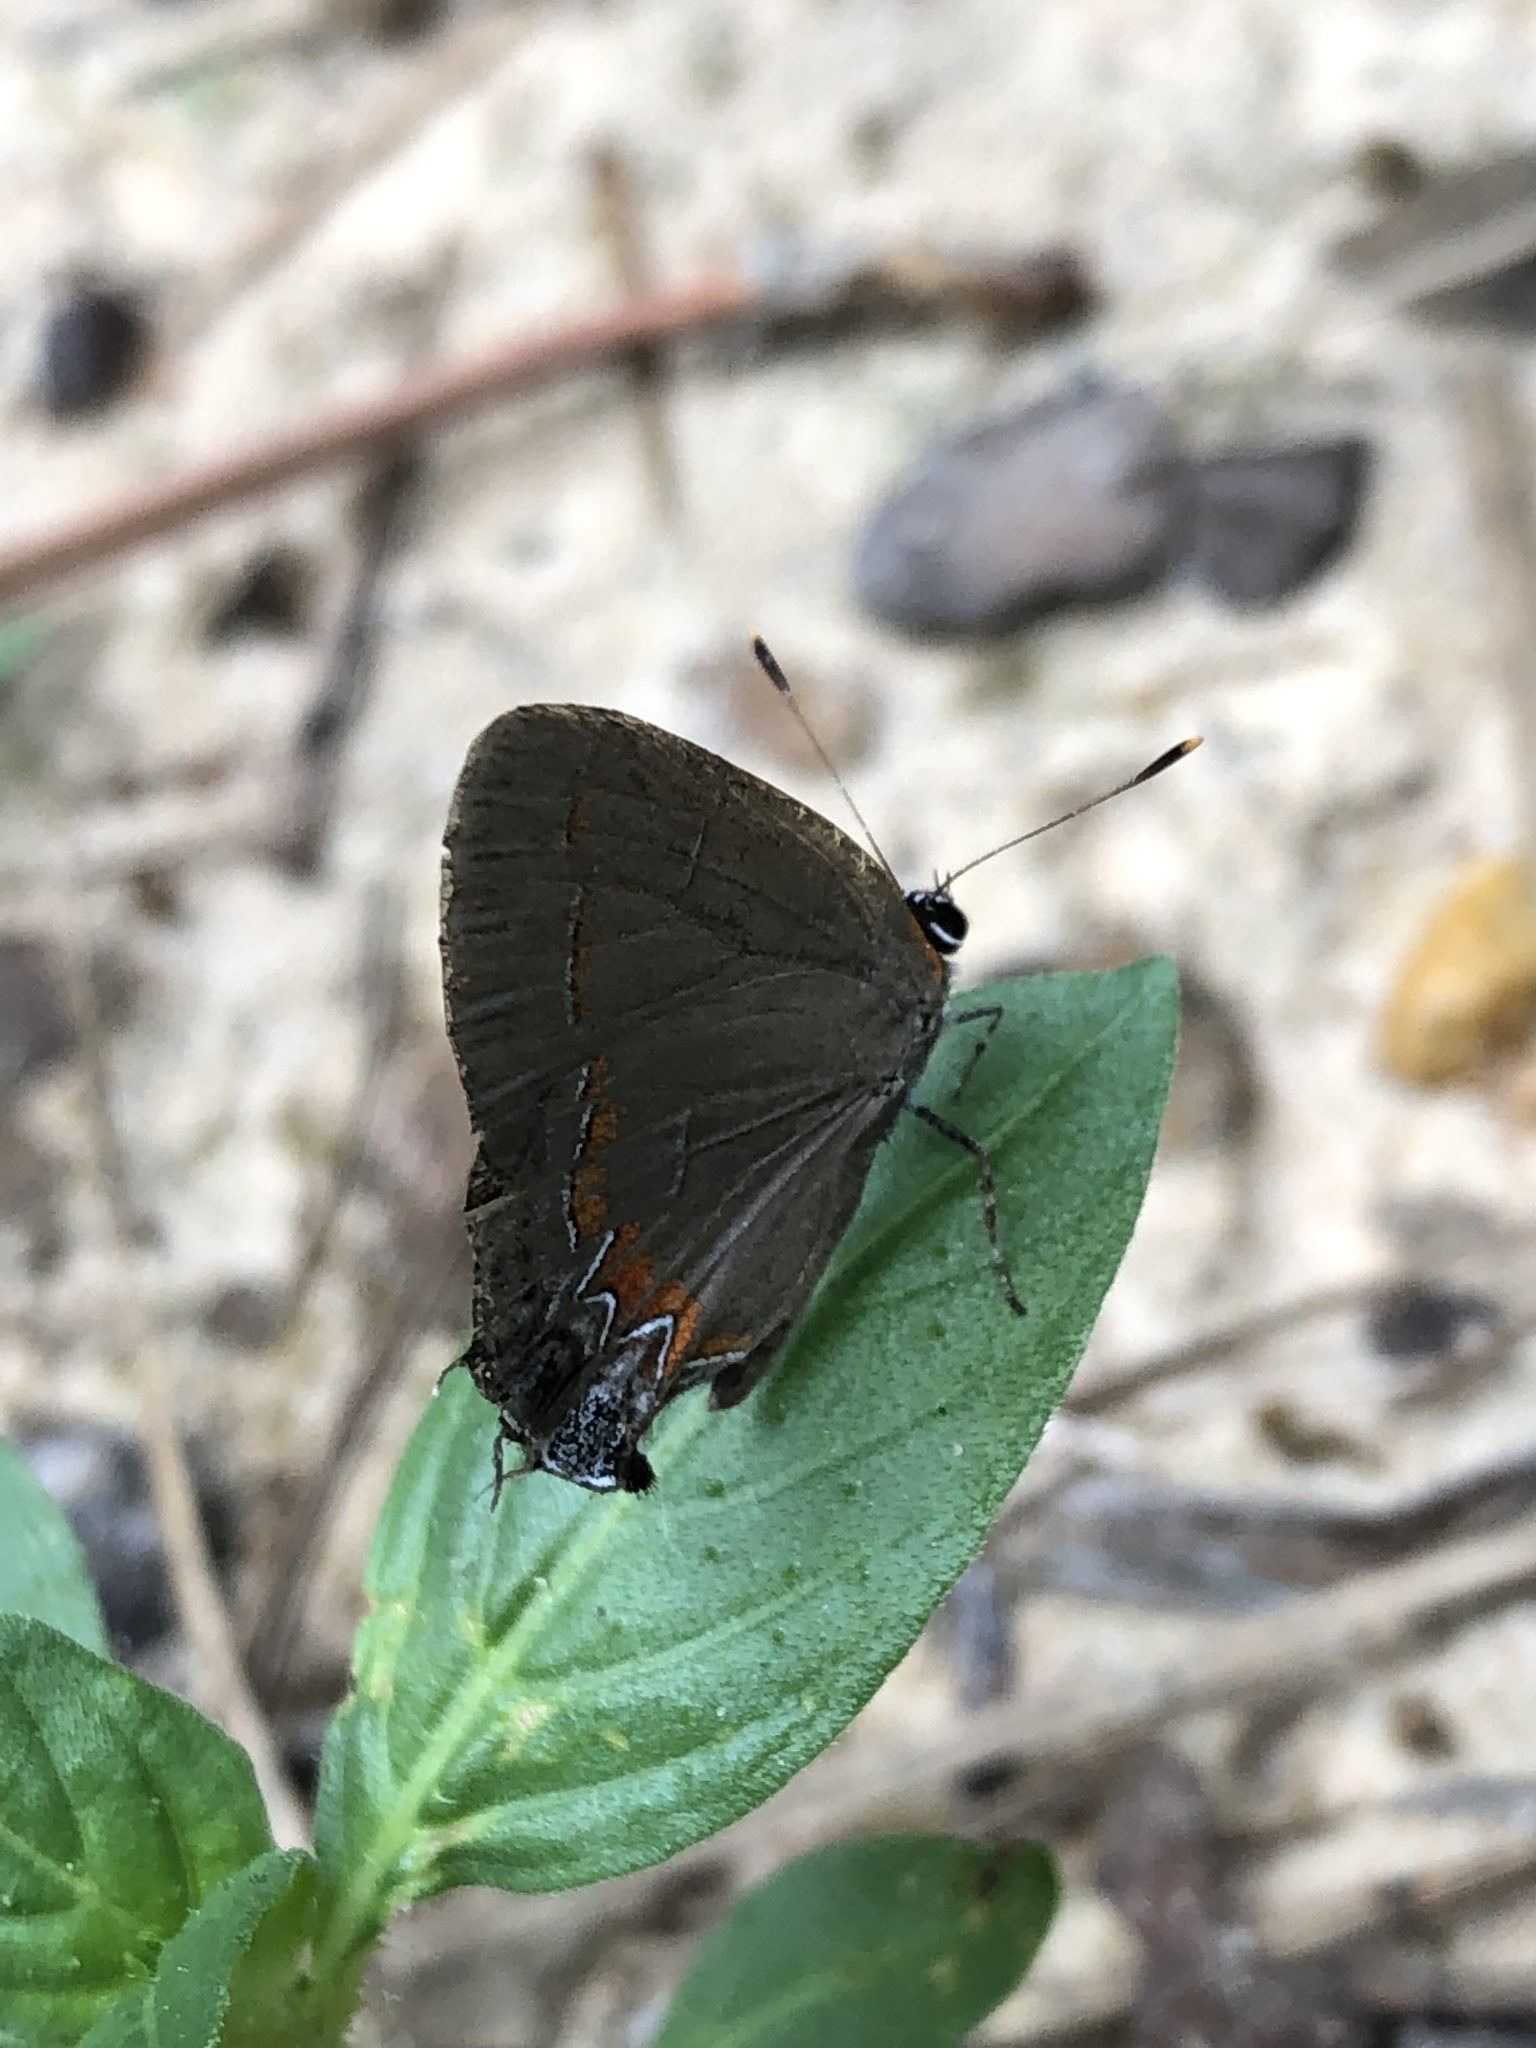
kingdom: Animalia
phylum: Arthropoda
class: Insecta
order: Lepidoptera
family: Lycaenidae
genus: Calycopis
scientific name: Calycopis cecrops
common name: Red-banded hairstreak
